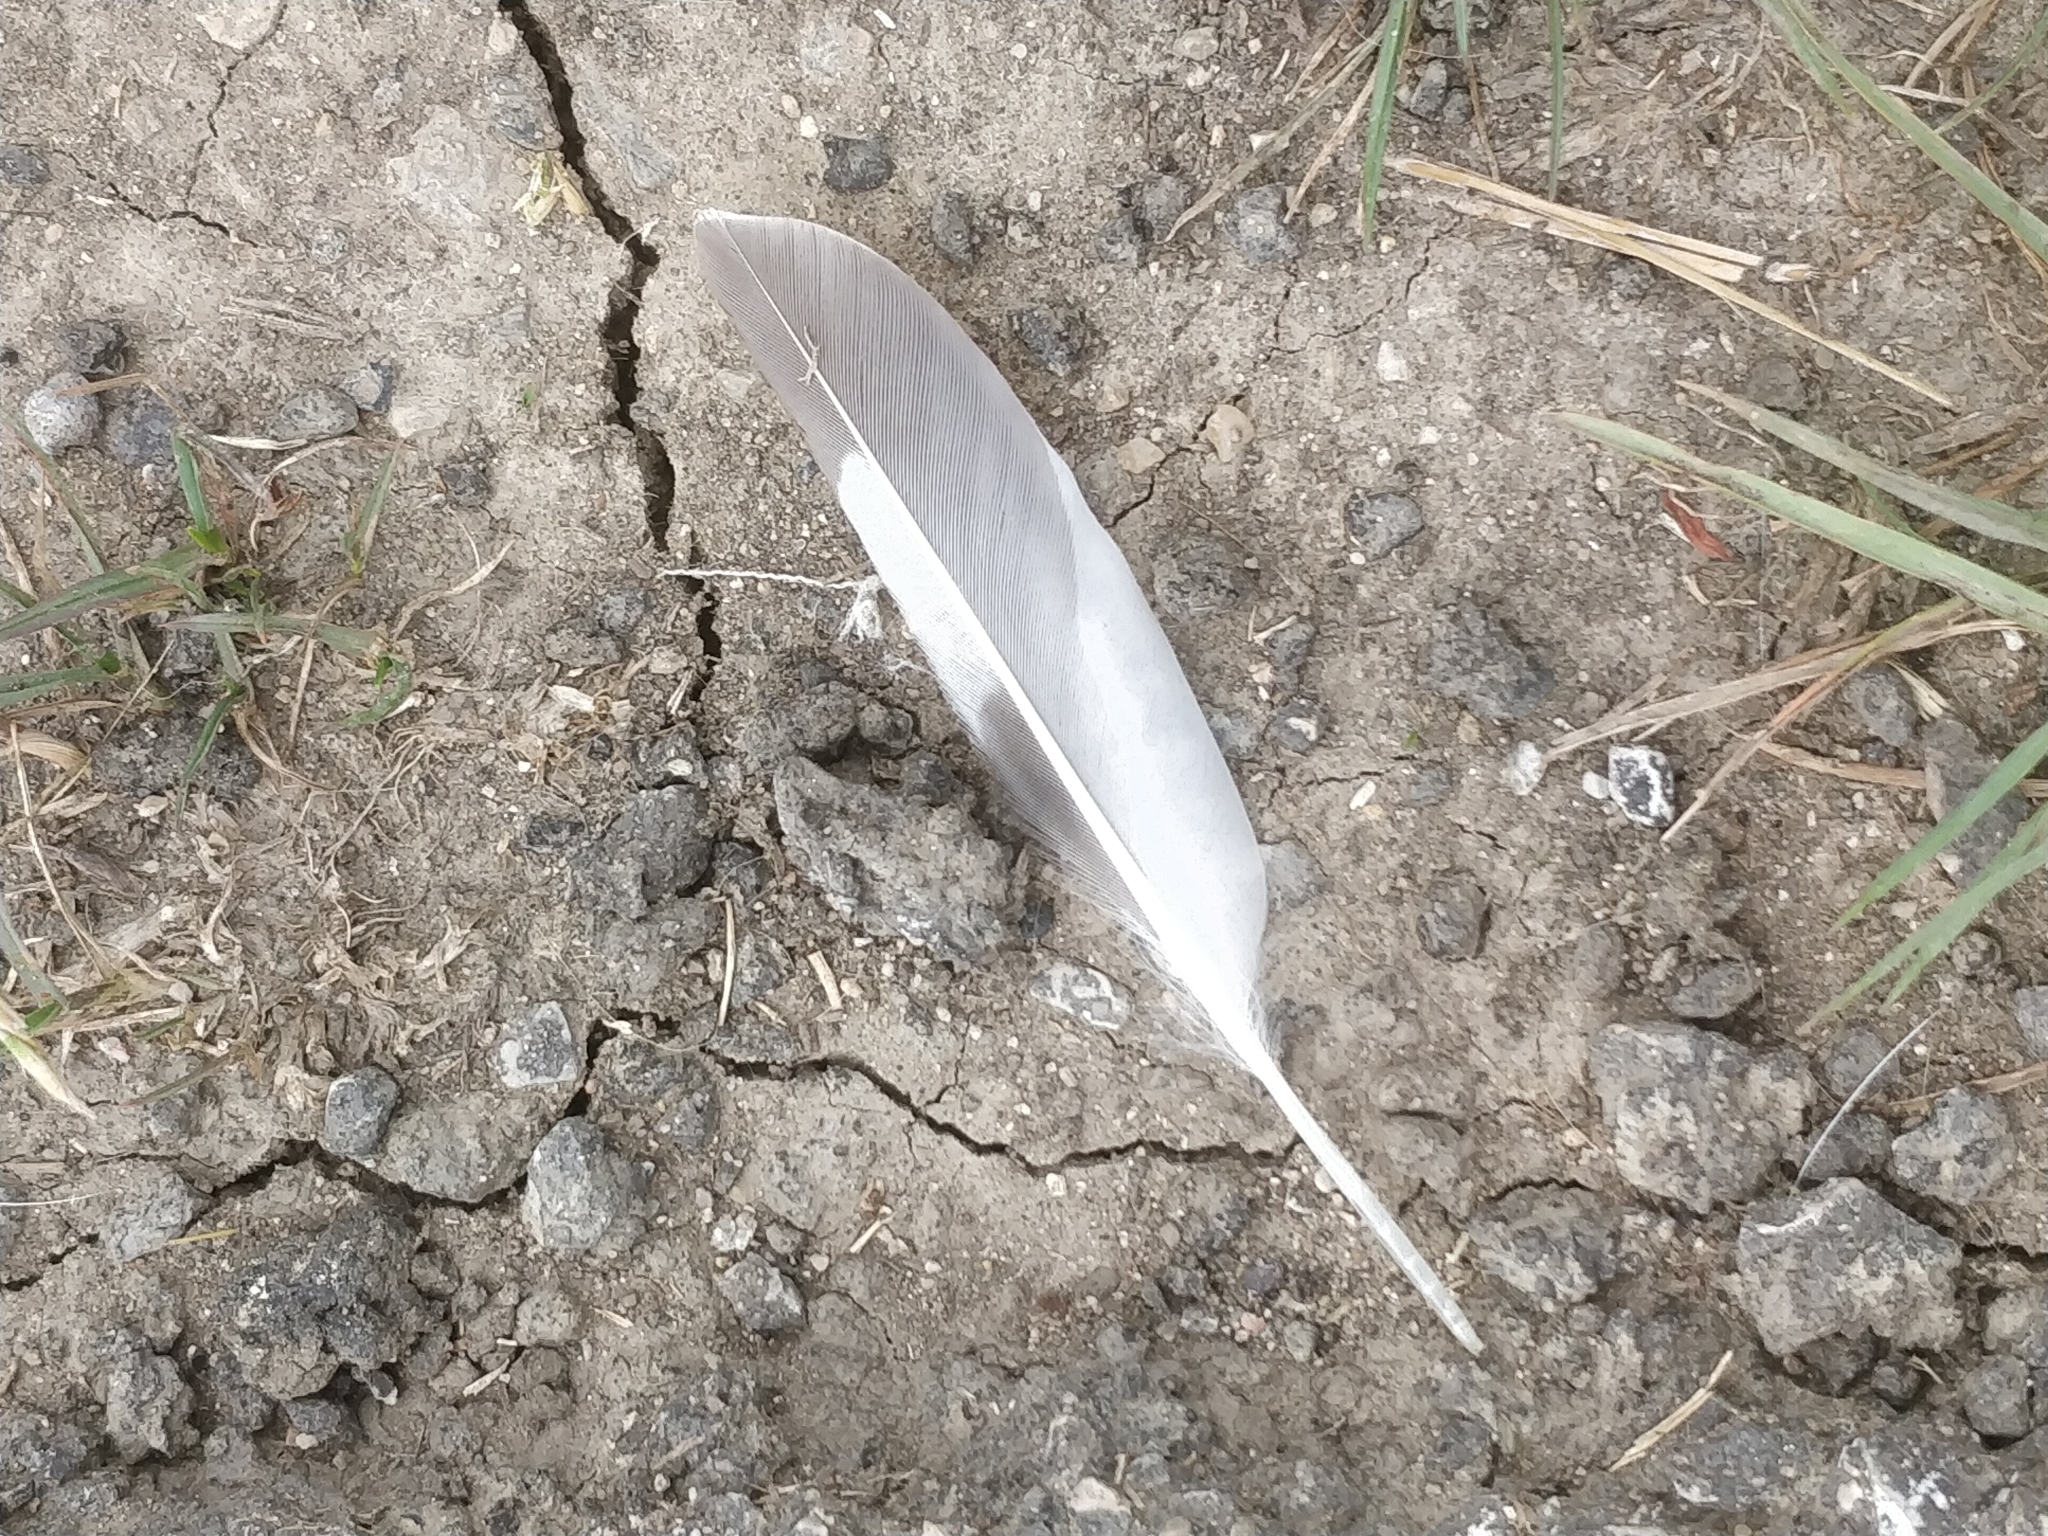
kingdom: Animalia
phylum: Chordata
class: Aves
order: Charadriiformes
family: Charadriidae
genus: Charadrius
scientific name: Charadrius vociferus
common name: Killdeer
